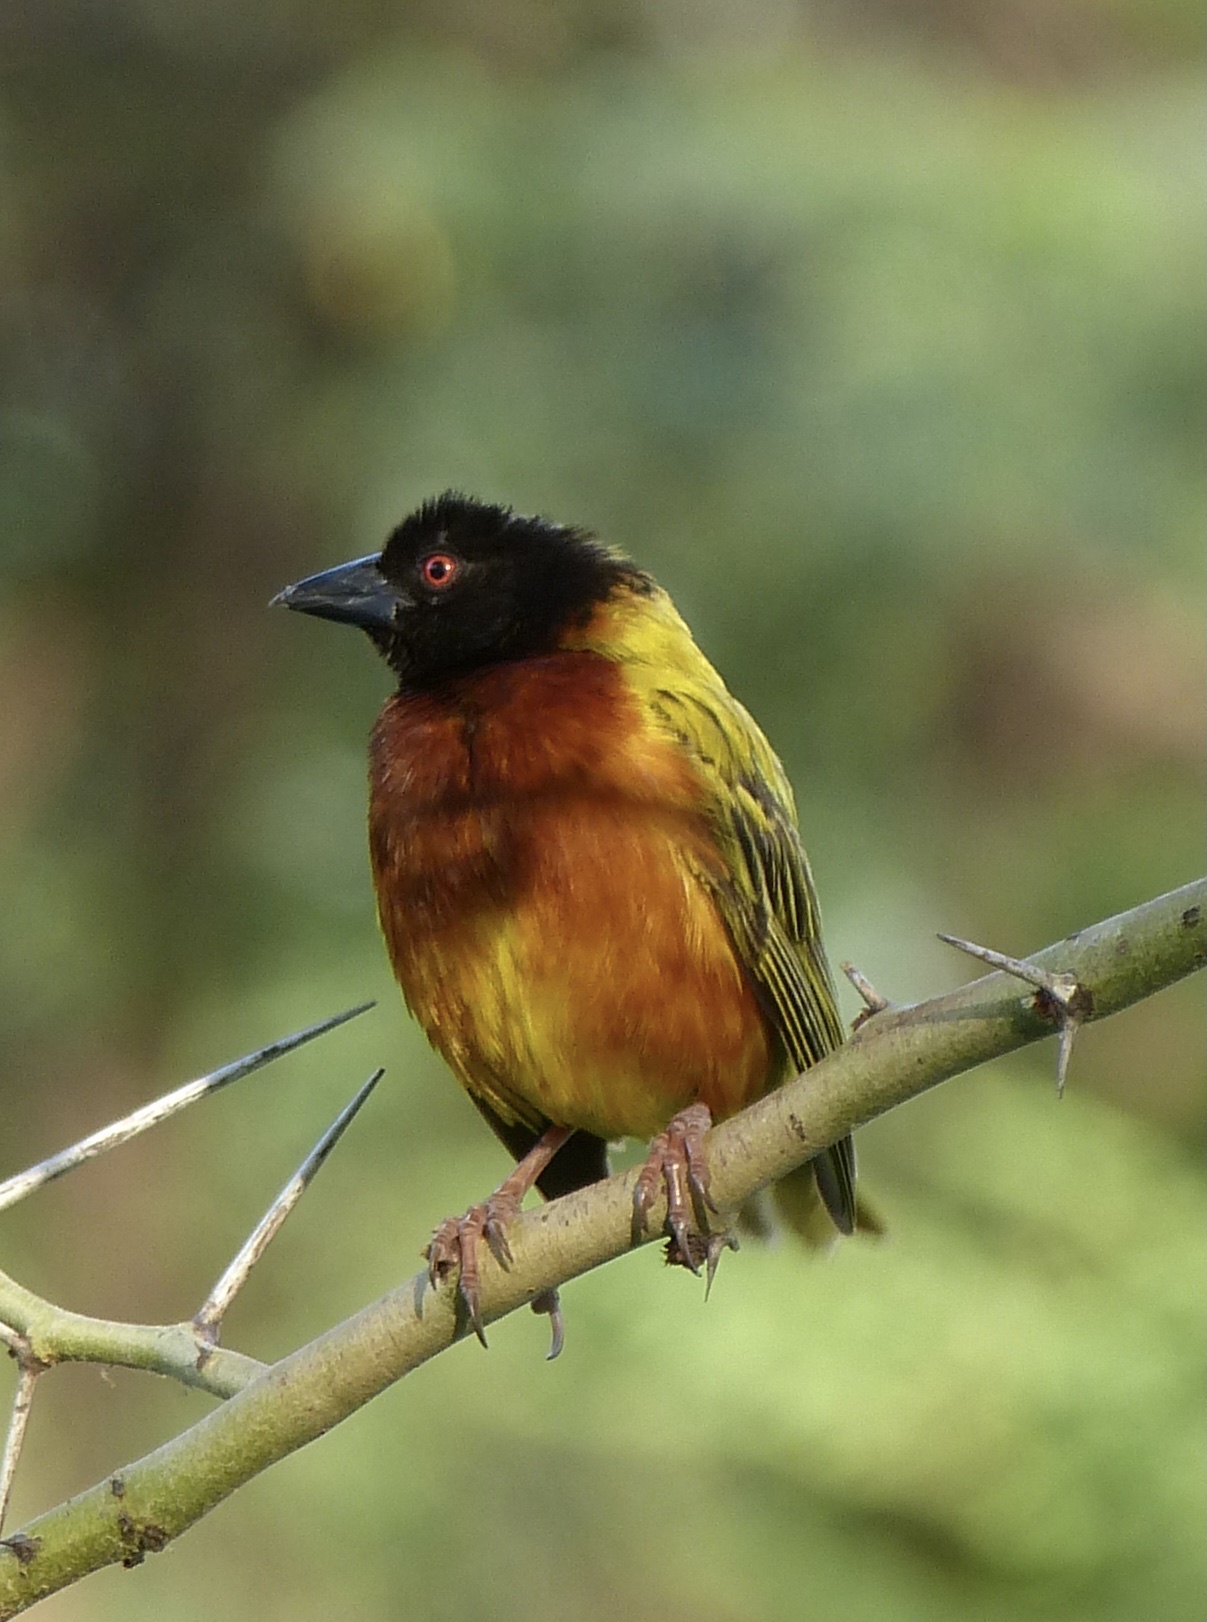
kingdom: Animalia
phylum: Chordata
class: Aves
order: Passeriformes
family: Ploceidae
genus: Ploceus
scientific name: Ploceus jacksoni
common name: Golden-backed weaver
